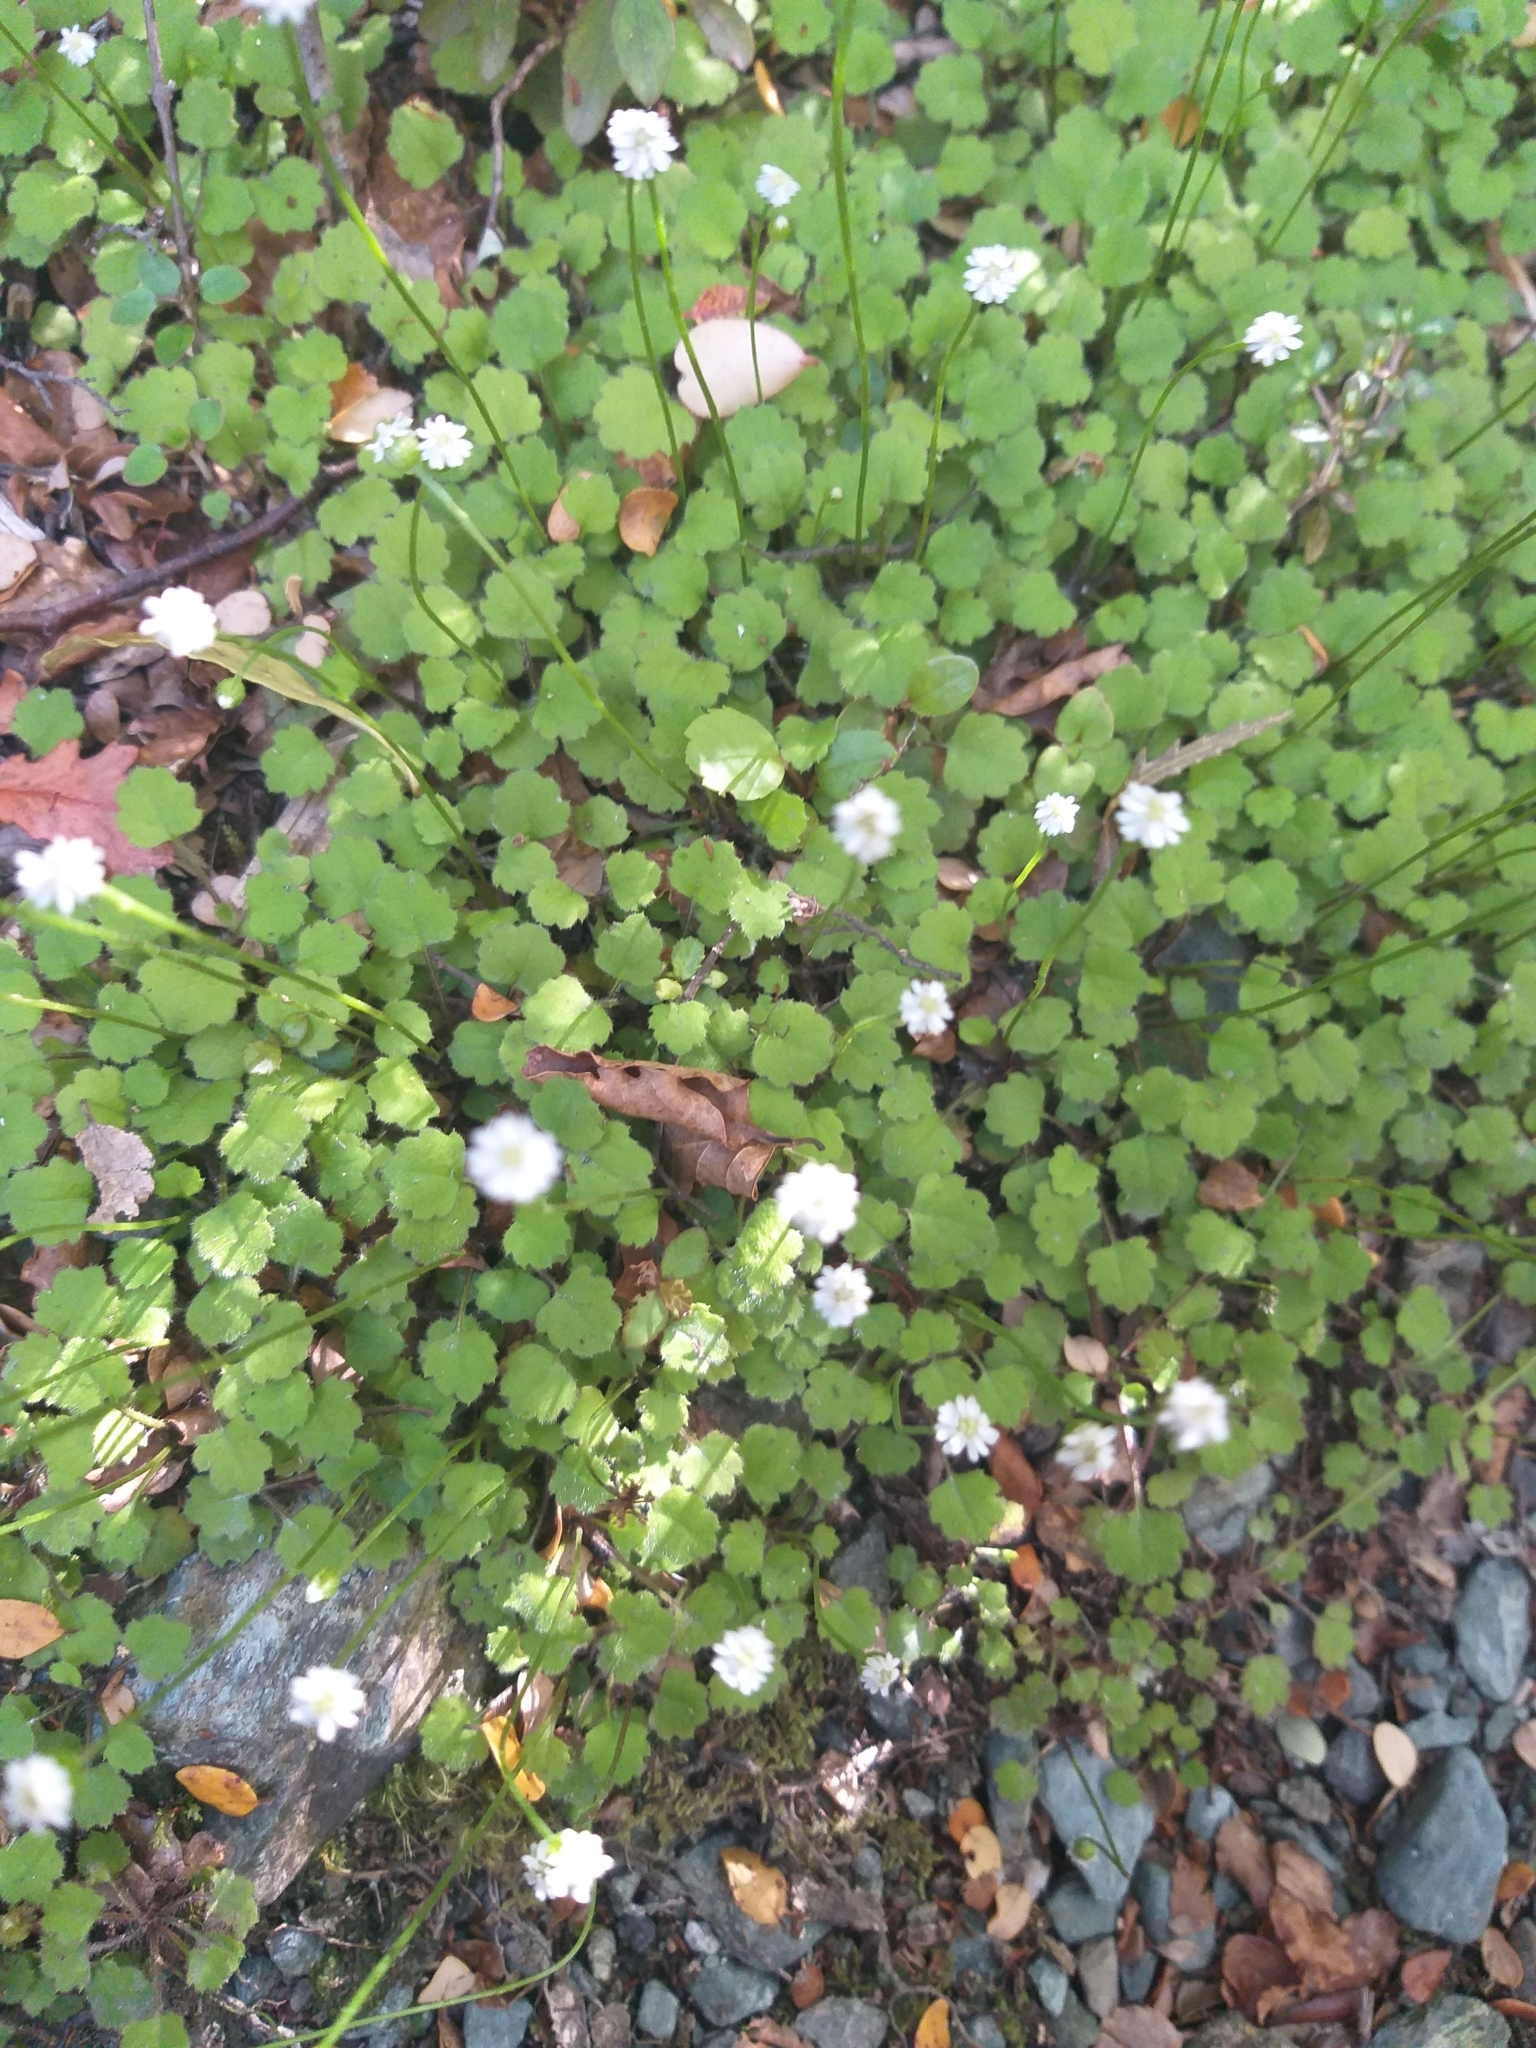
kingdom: Plantae
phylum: Tracheophyta
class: Magnoliopsida
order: Asterales
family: Asteraceae
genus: Lagenophora
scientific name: Lagenophora strangulata
